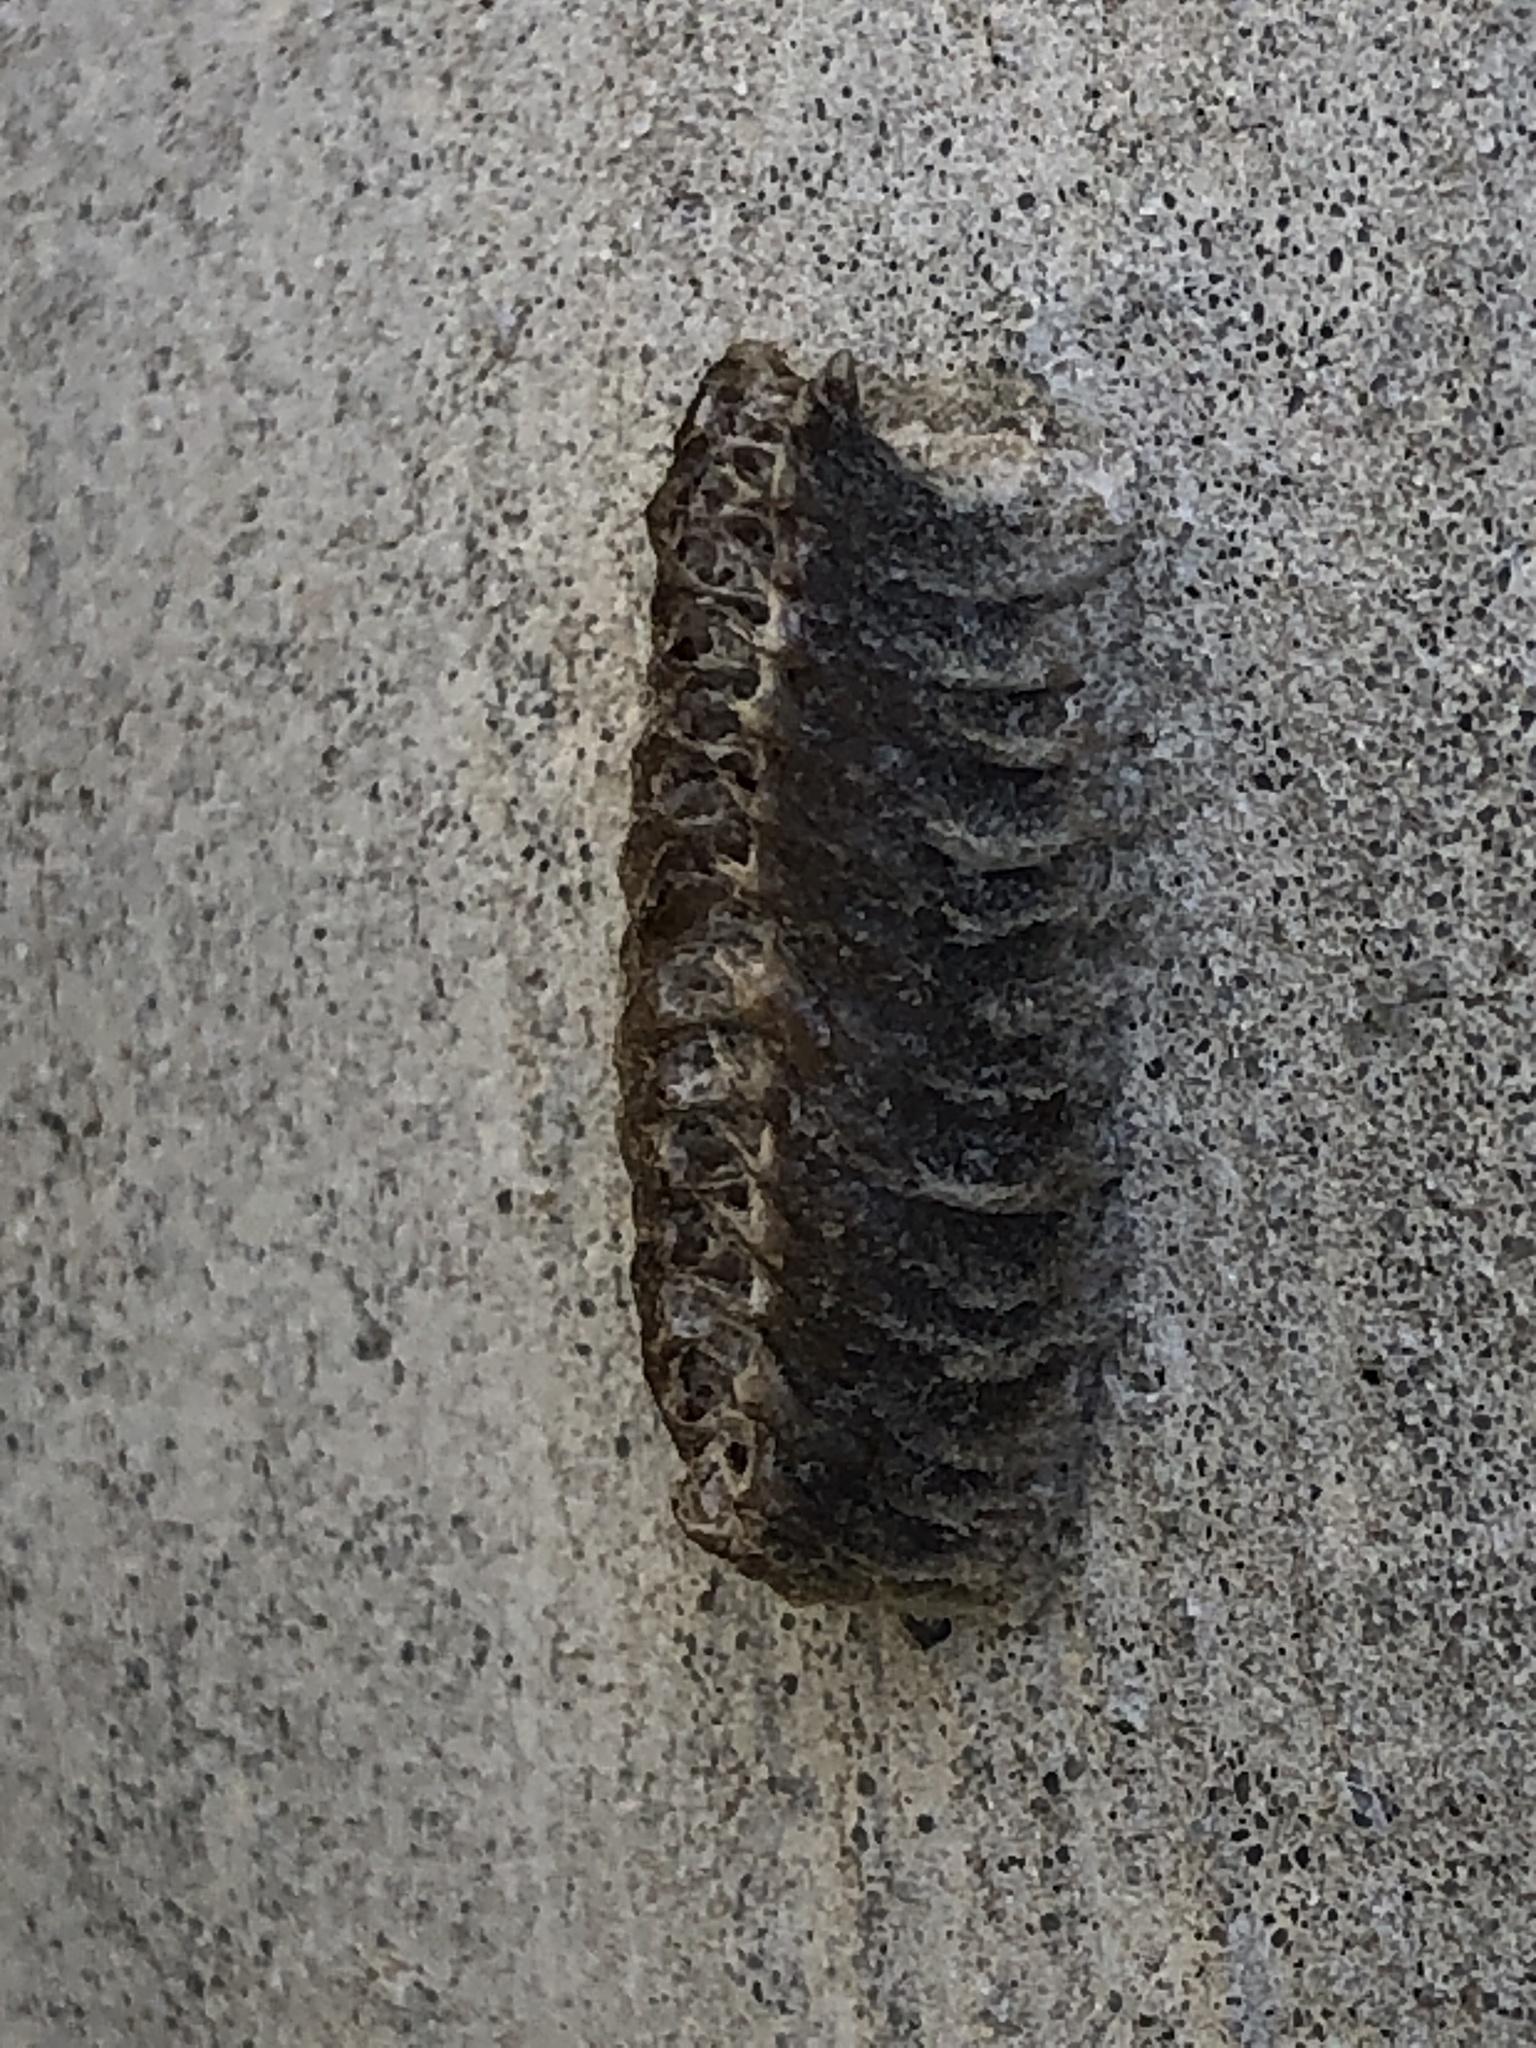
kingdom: Animalia
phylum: Arthropoda
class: Insecta
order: Mantodea
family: Eremiaphilidae
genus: Iris
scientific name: Iris oratoria
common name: Mediterranean mantis
